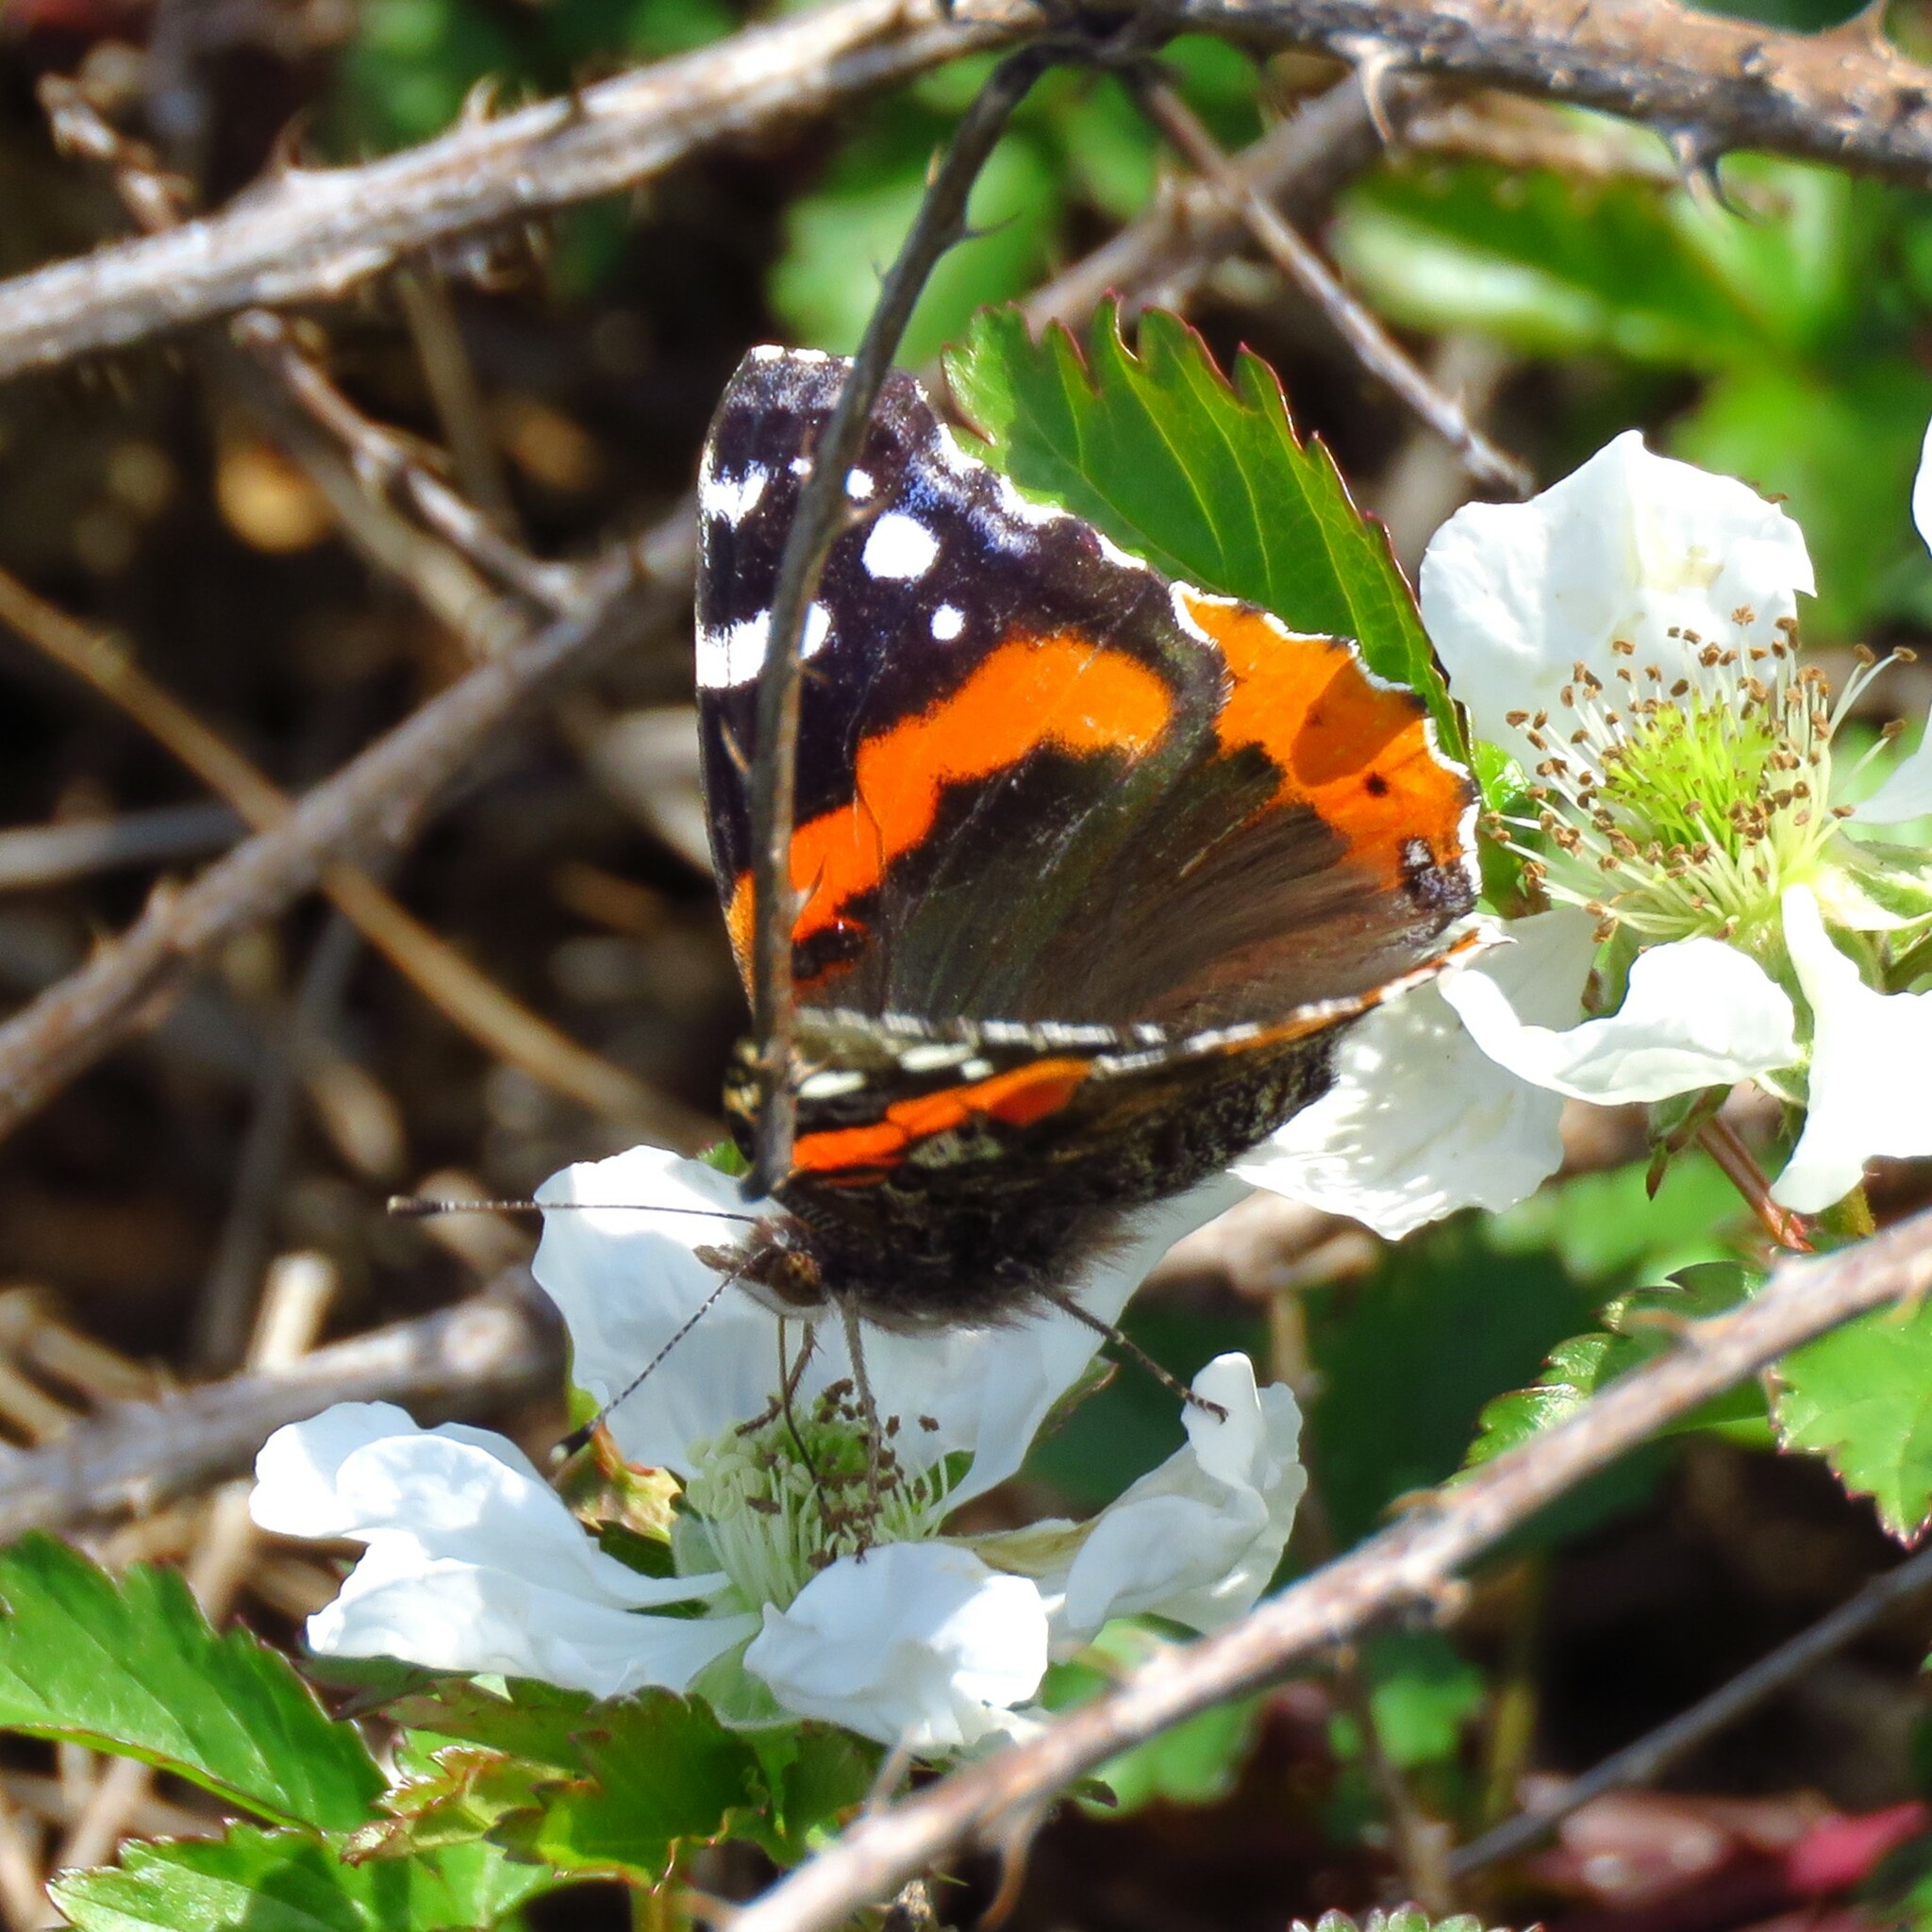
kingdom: Animalia
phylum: Arthropoda
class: Insecta
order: Lepidoptera
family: Nymphalidae
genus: Vanessa
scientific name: Vanessa atalanta
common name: Red admiral
